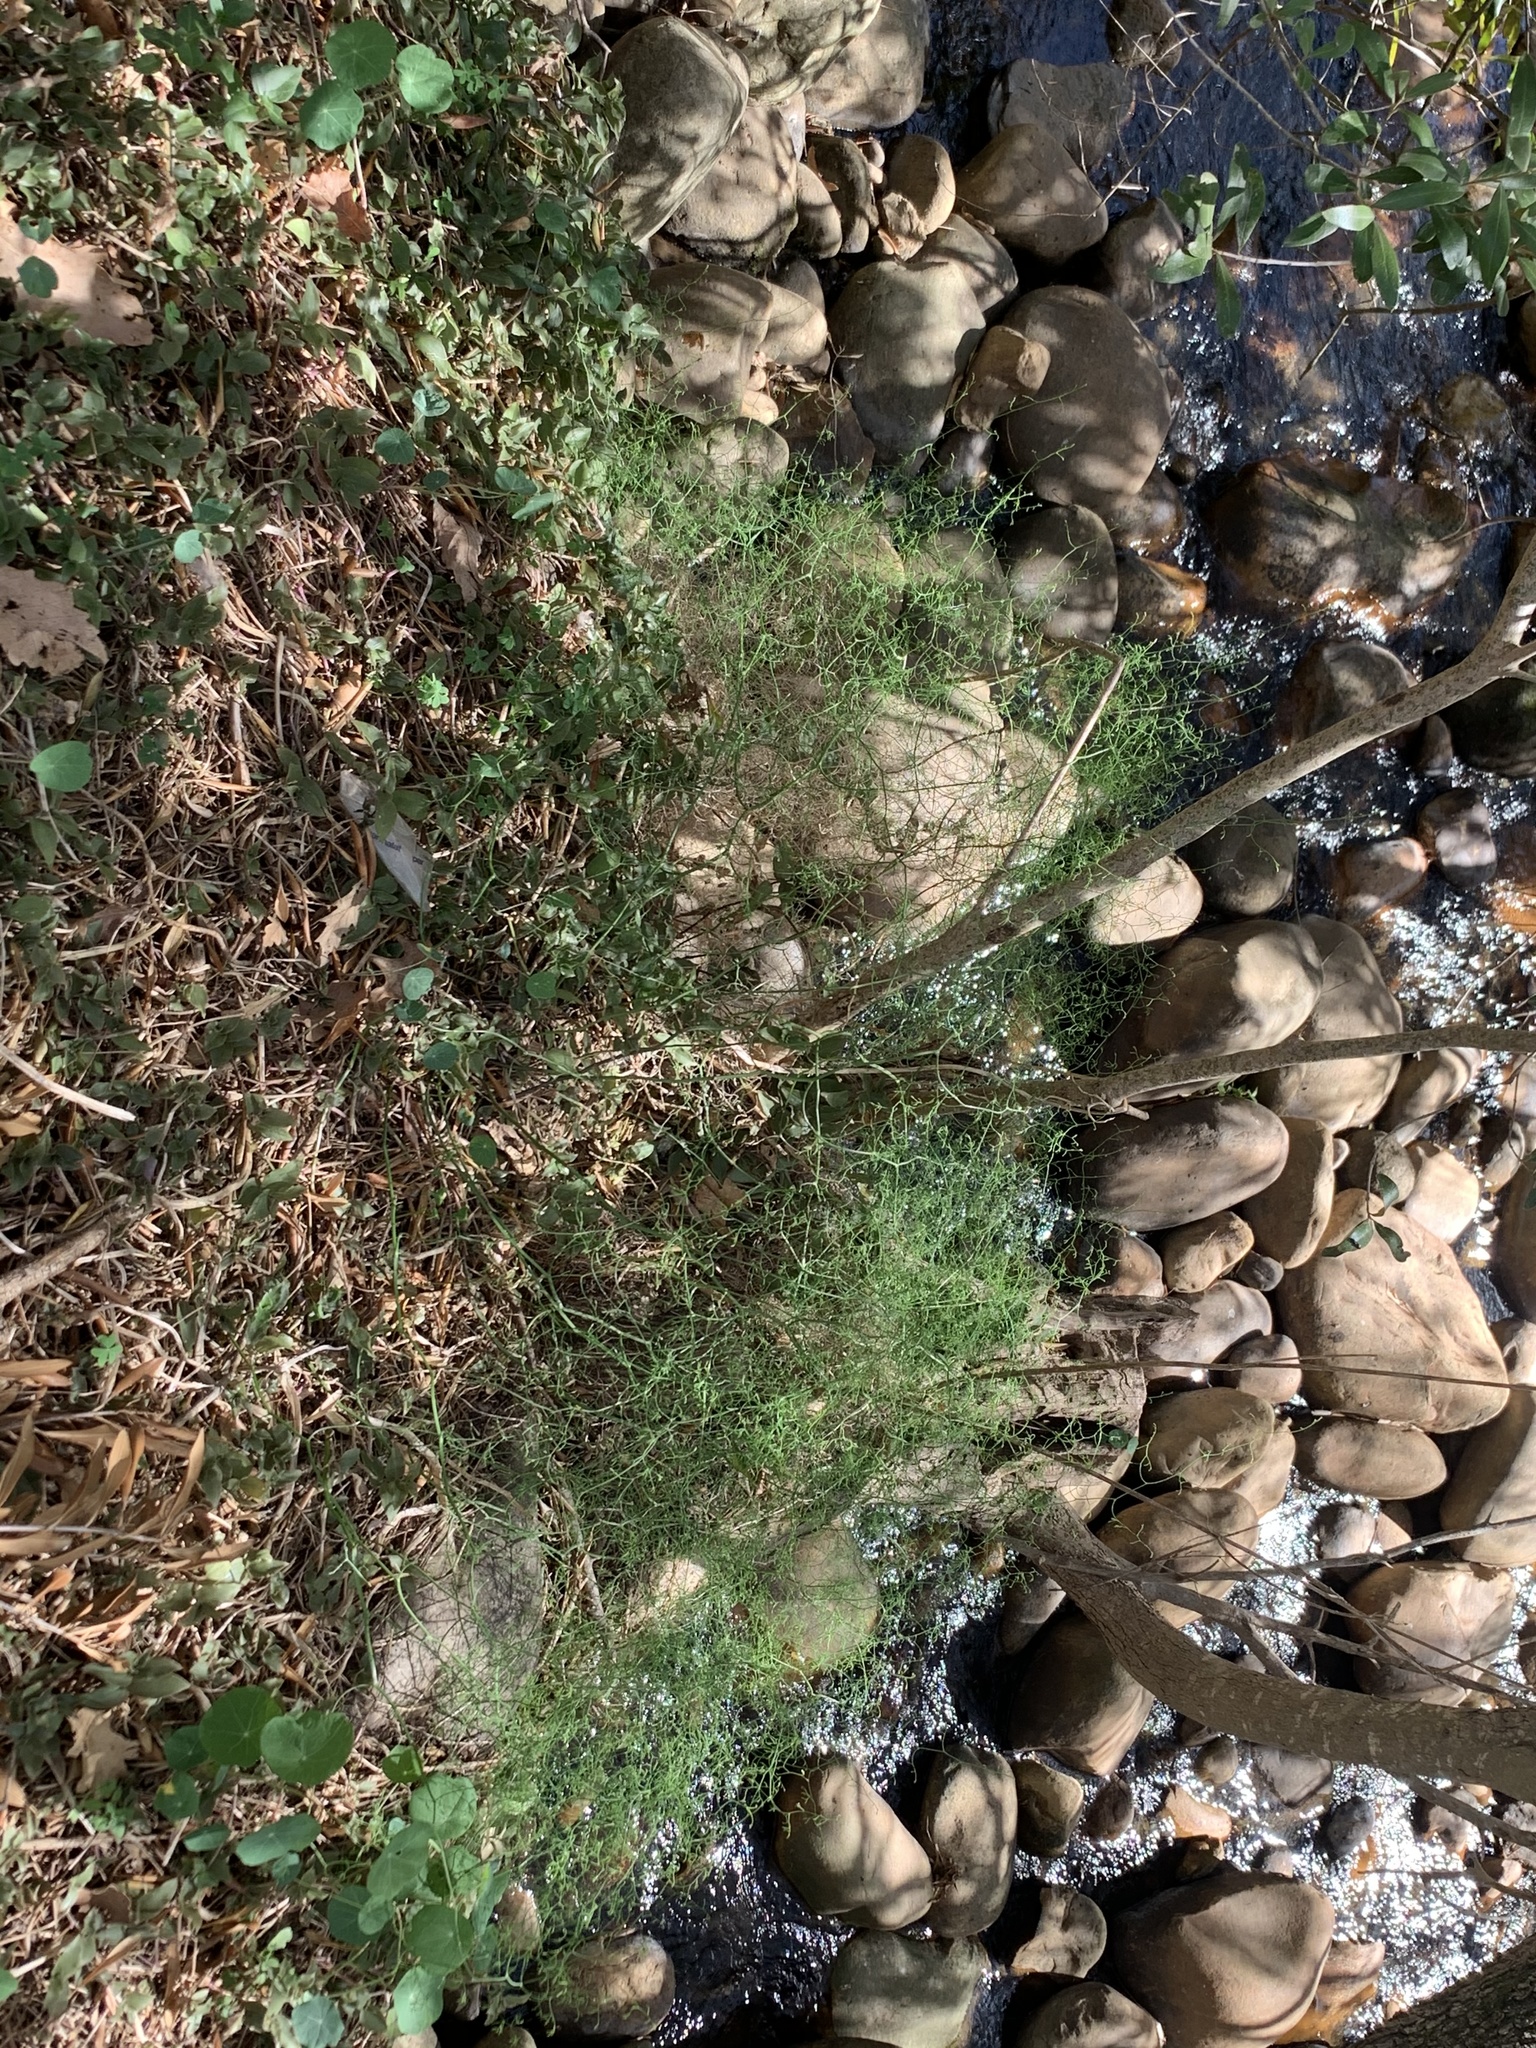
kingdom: Plantae
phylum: Tracheophyta
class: Liliopsida
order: Asparagales
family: Asparagaceae
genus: Asparagus
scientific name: Asparagus declinatus
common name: Bridal-creeper
